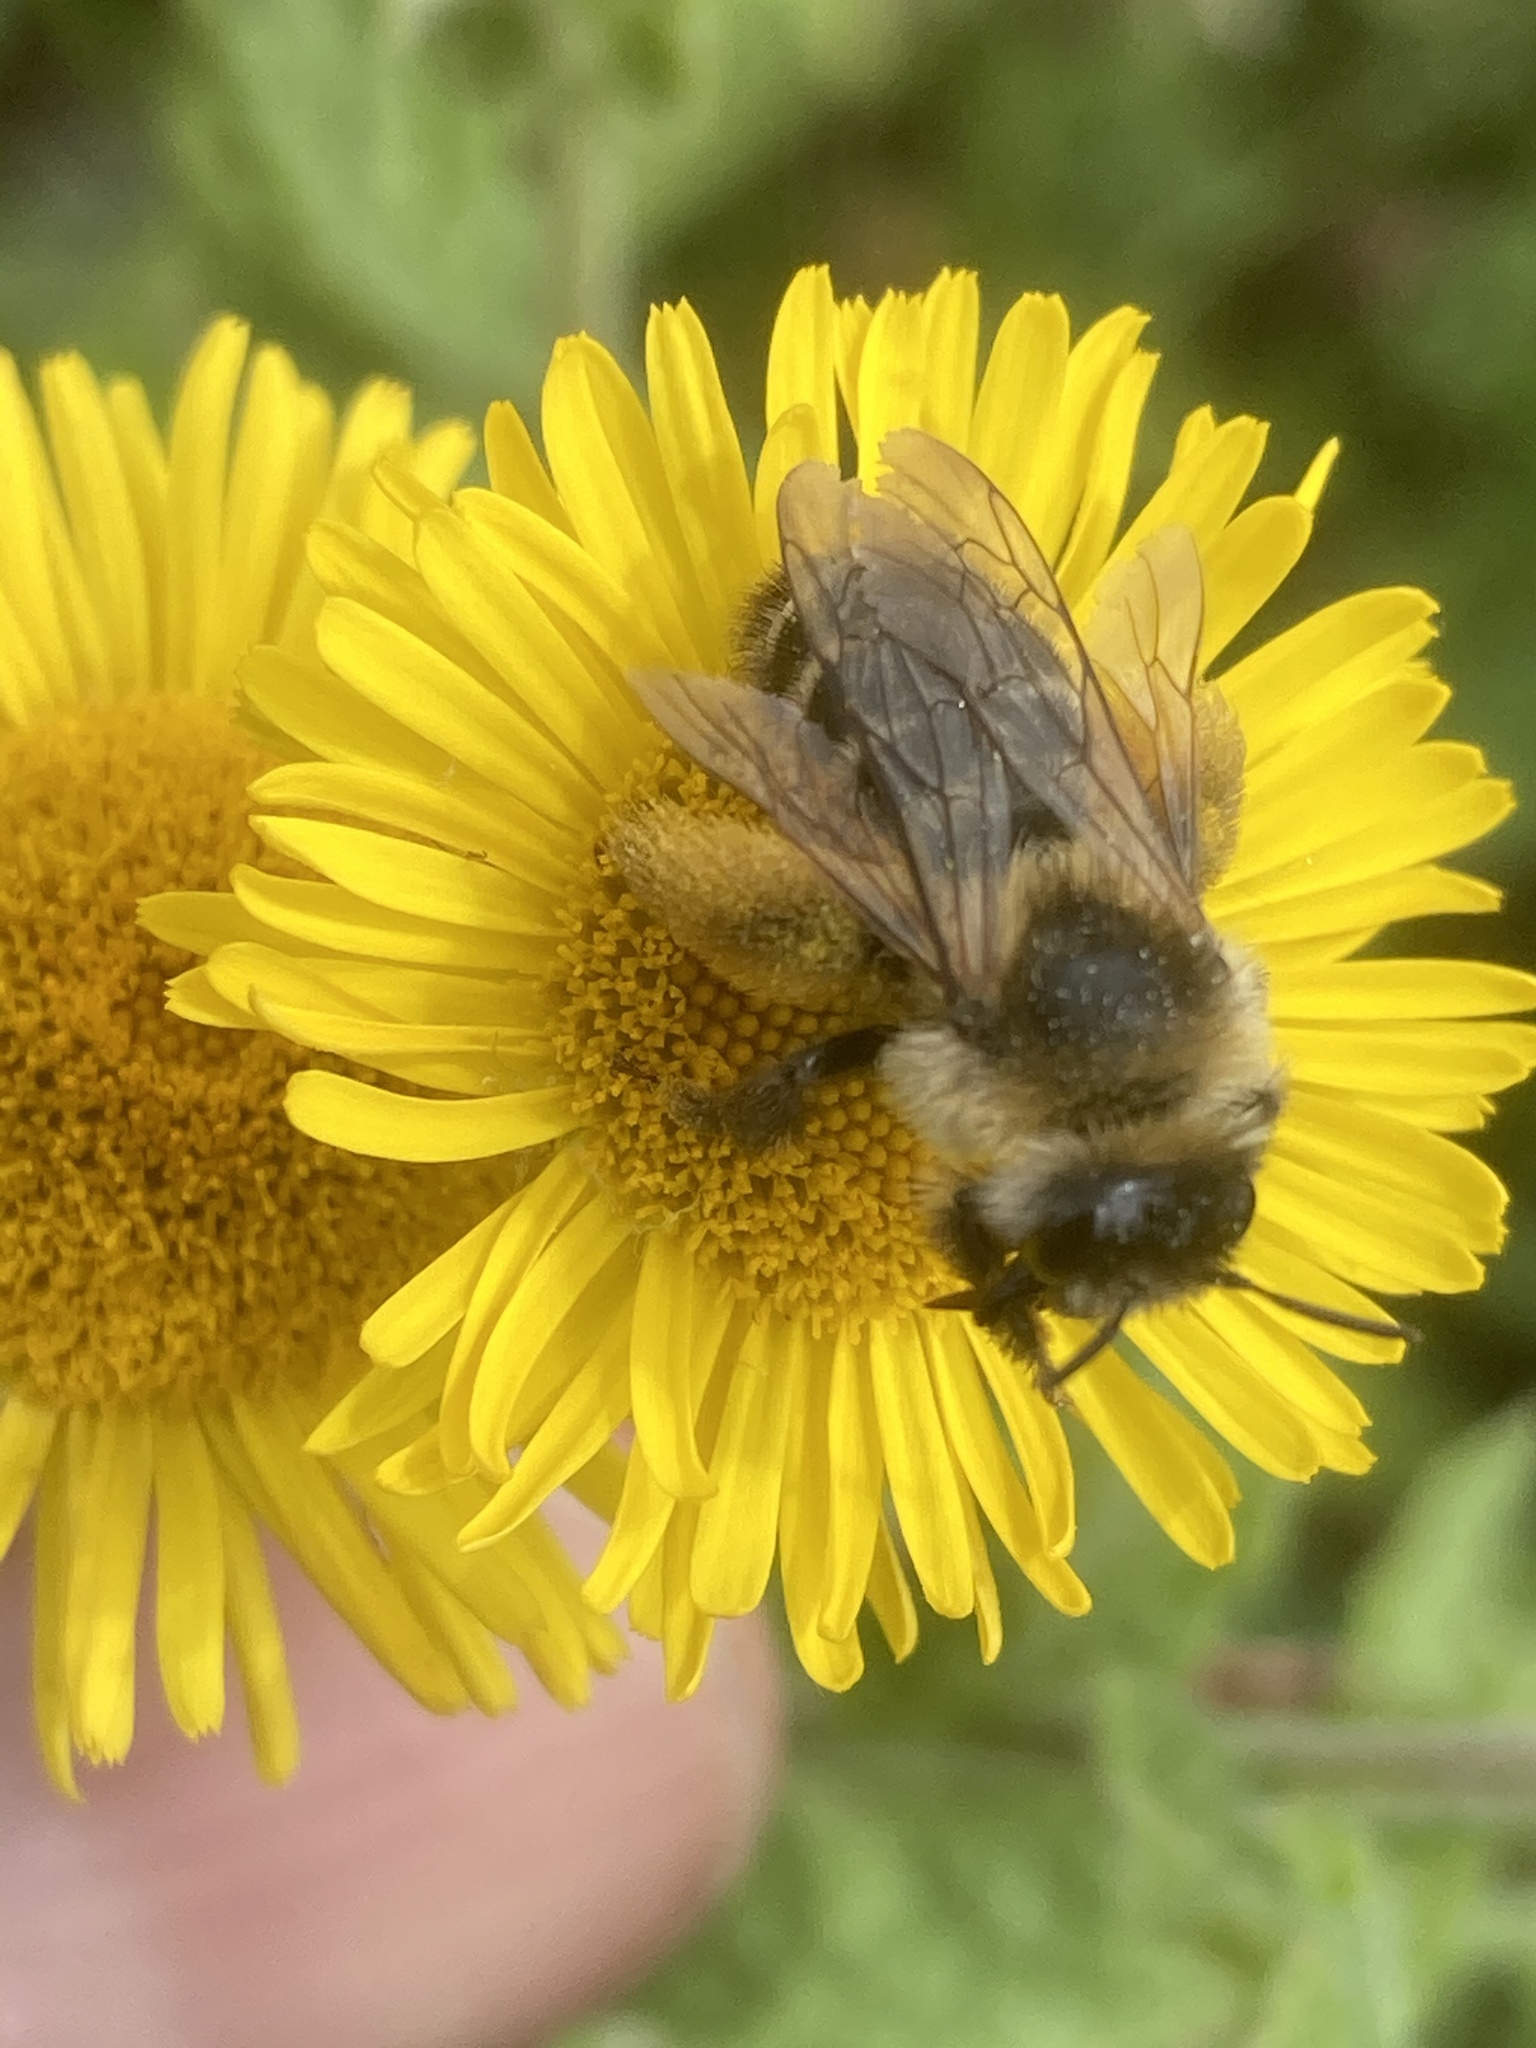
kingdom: Plantae
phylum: Tracheophyta
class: Magnoliopsida
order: Asterales
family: Asteraceae
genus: Pulicaria
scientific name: Pulicaria dysenterica
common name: Common fleabane
